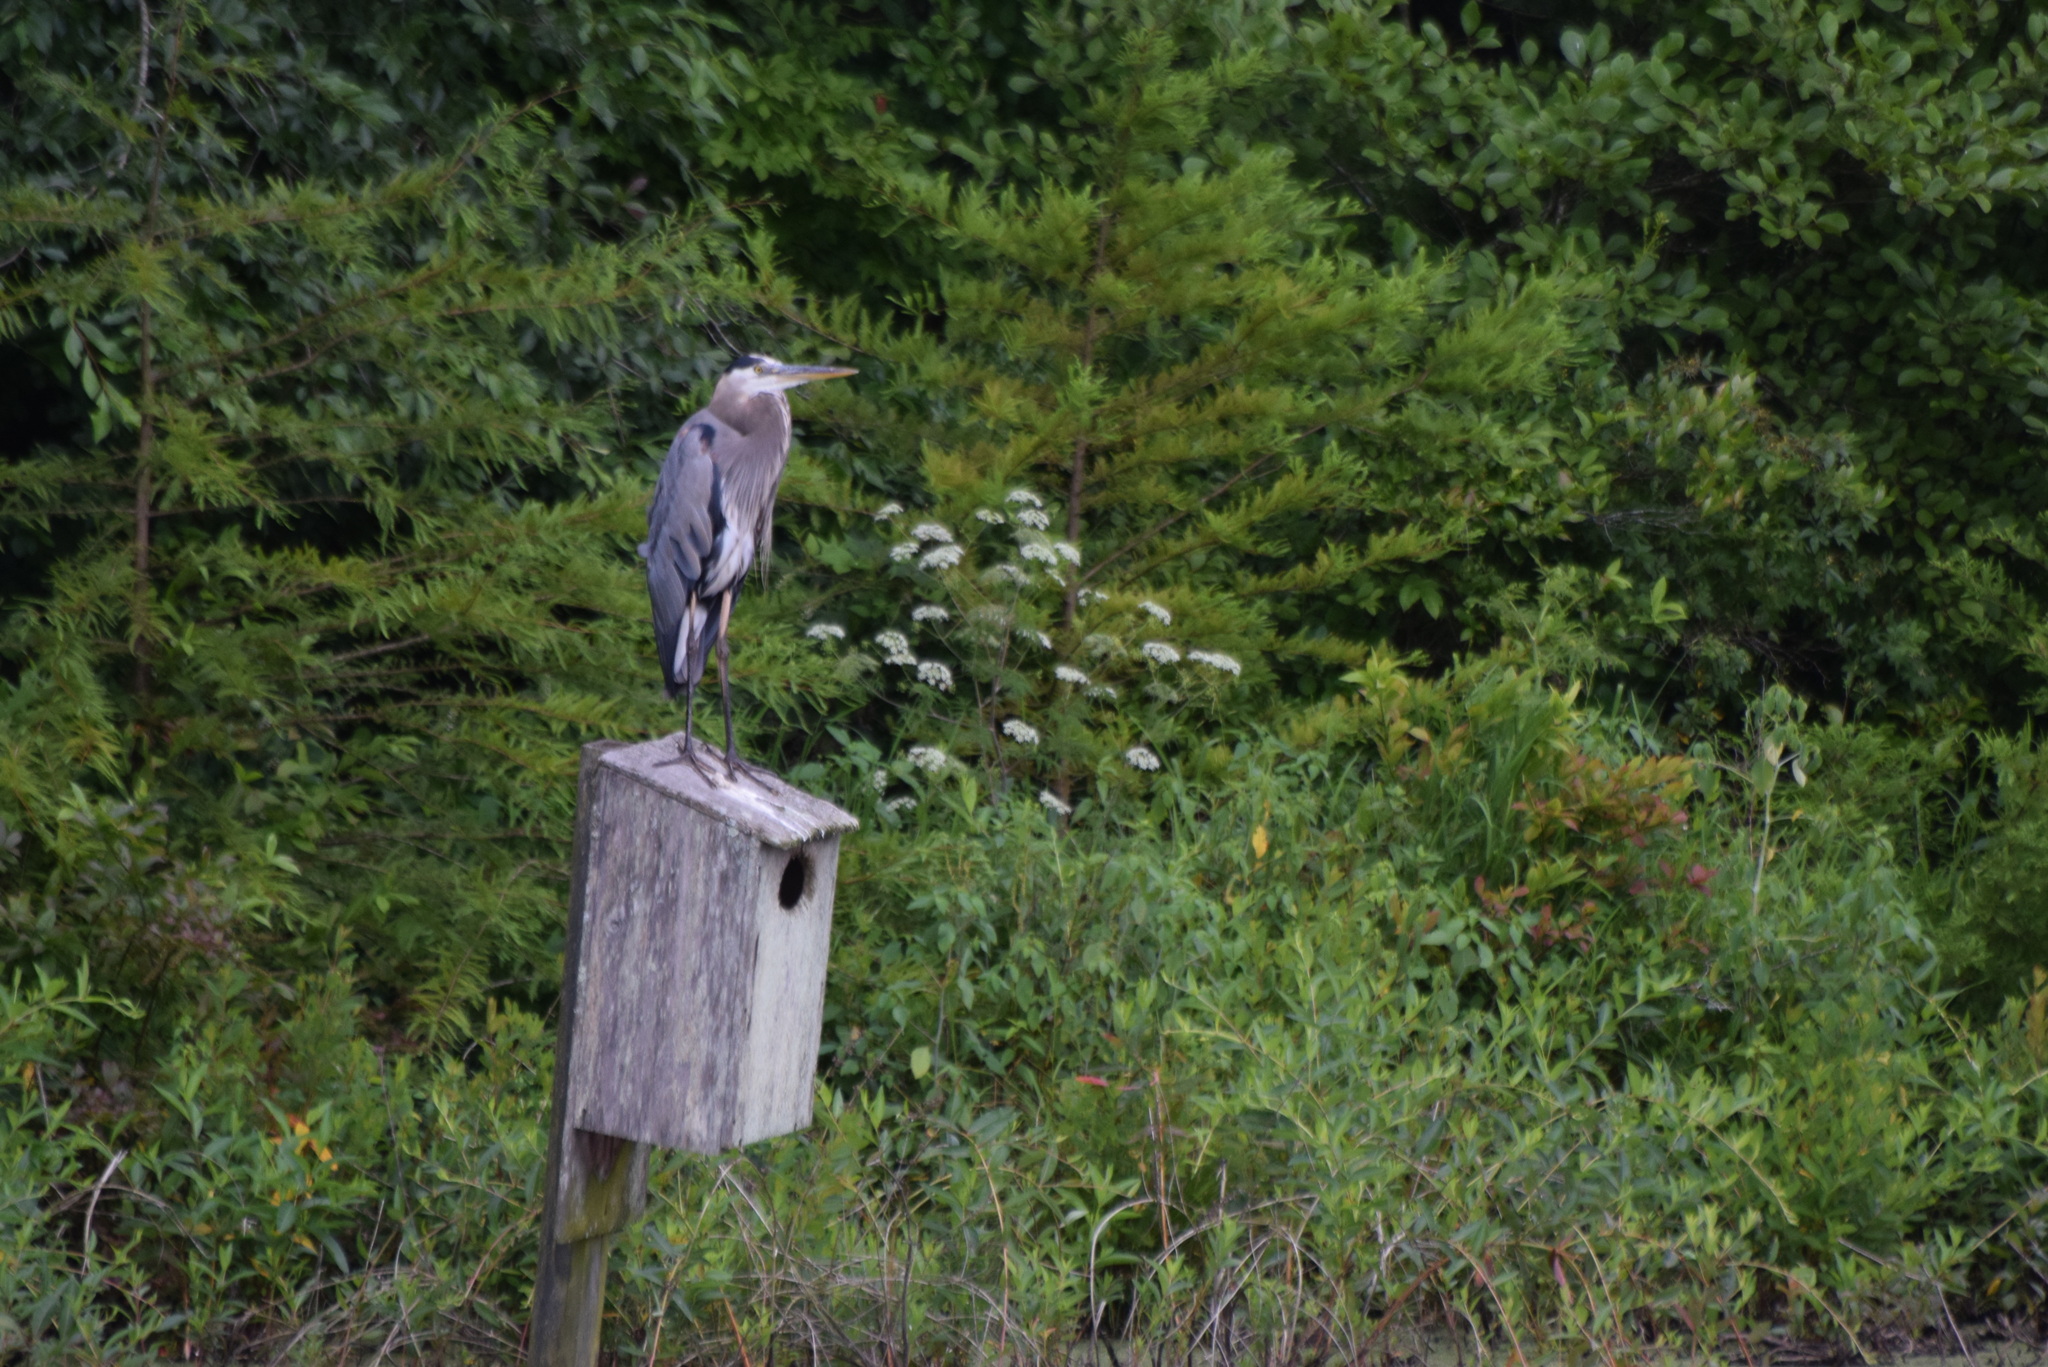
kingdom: Animalia
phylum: Chordata
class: Aves
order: Pelecaniformes
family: Ardeidae
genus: Ardea
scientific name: Ardea herodias
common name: Great blue heron
